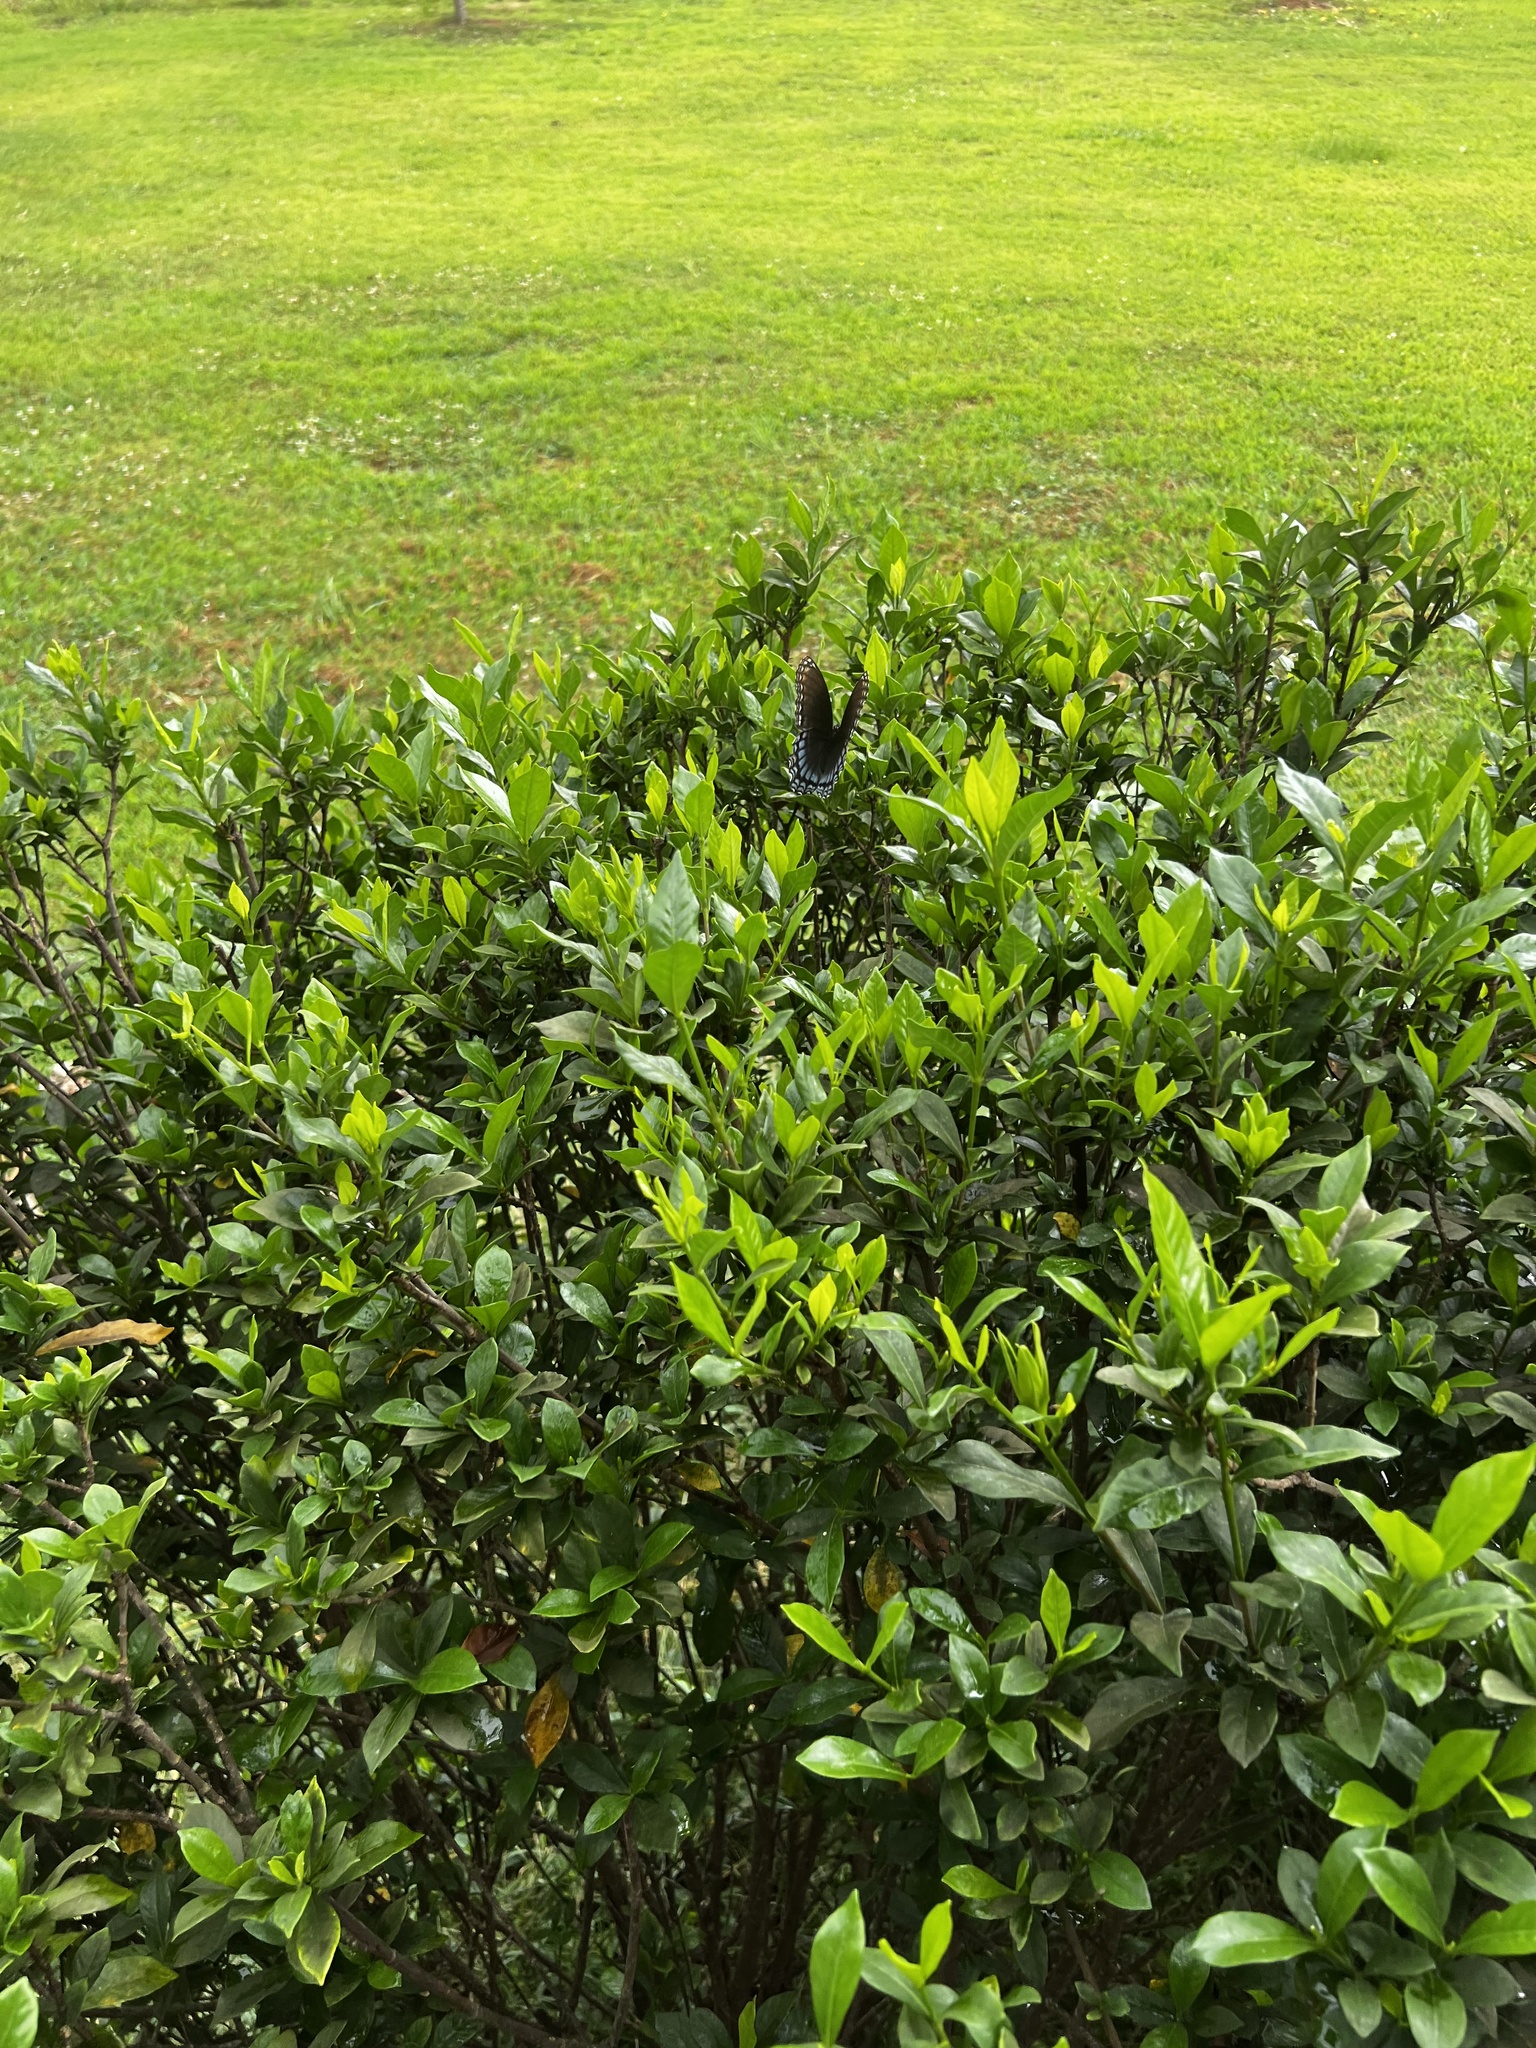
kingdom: Animalia
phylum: Arthropoda
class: Insecta
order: Lepidoptera
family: Nymphalidae
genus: Limenitis
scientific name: Limenitis astyanax
